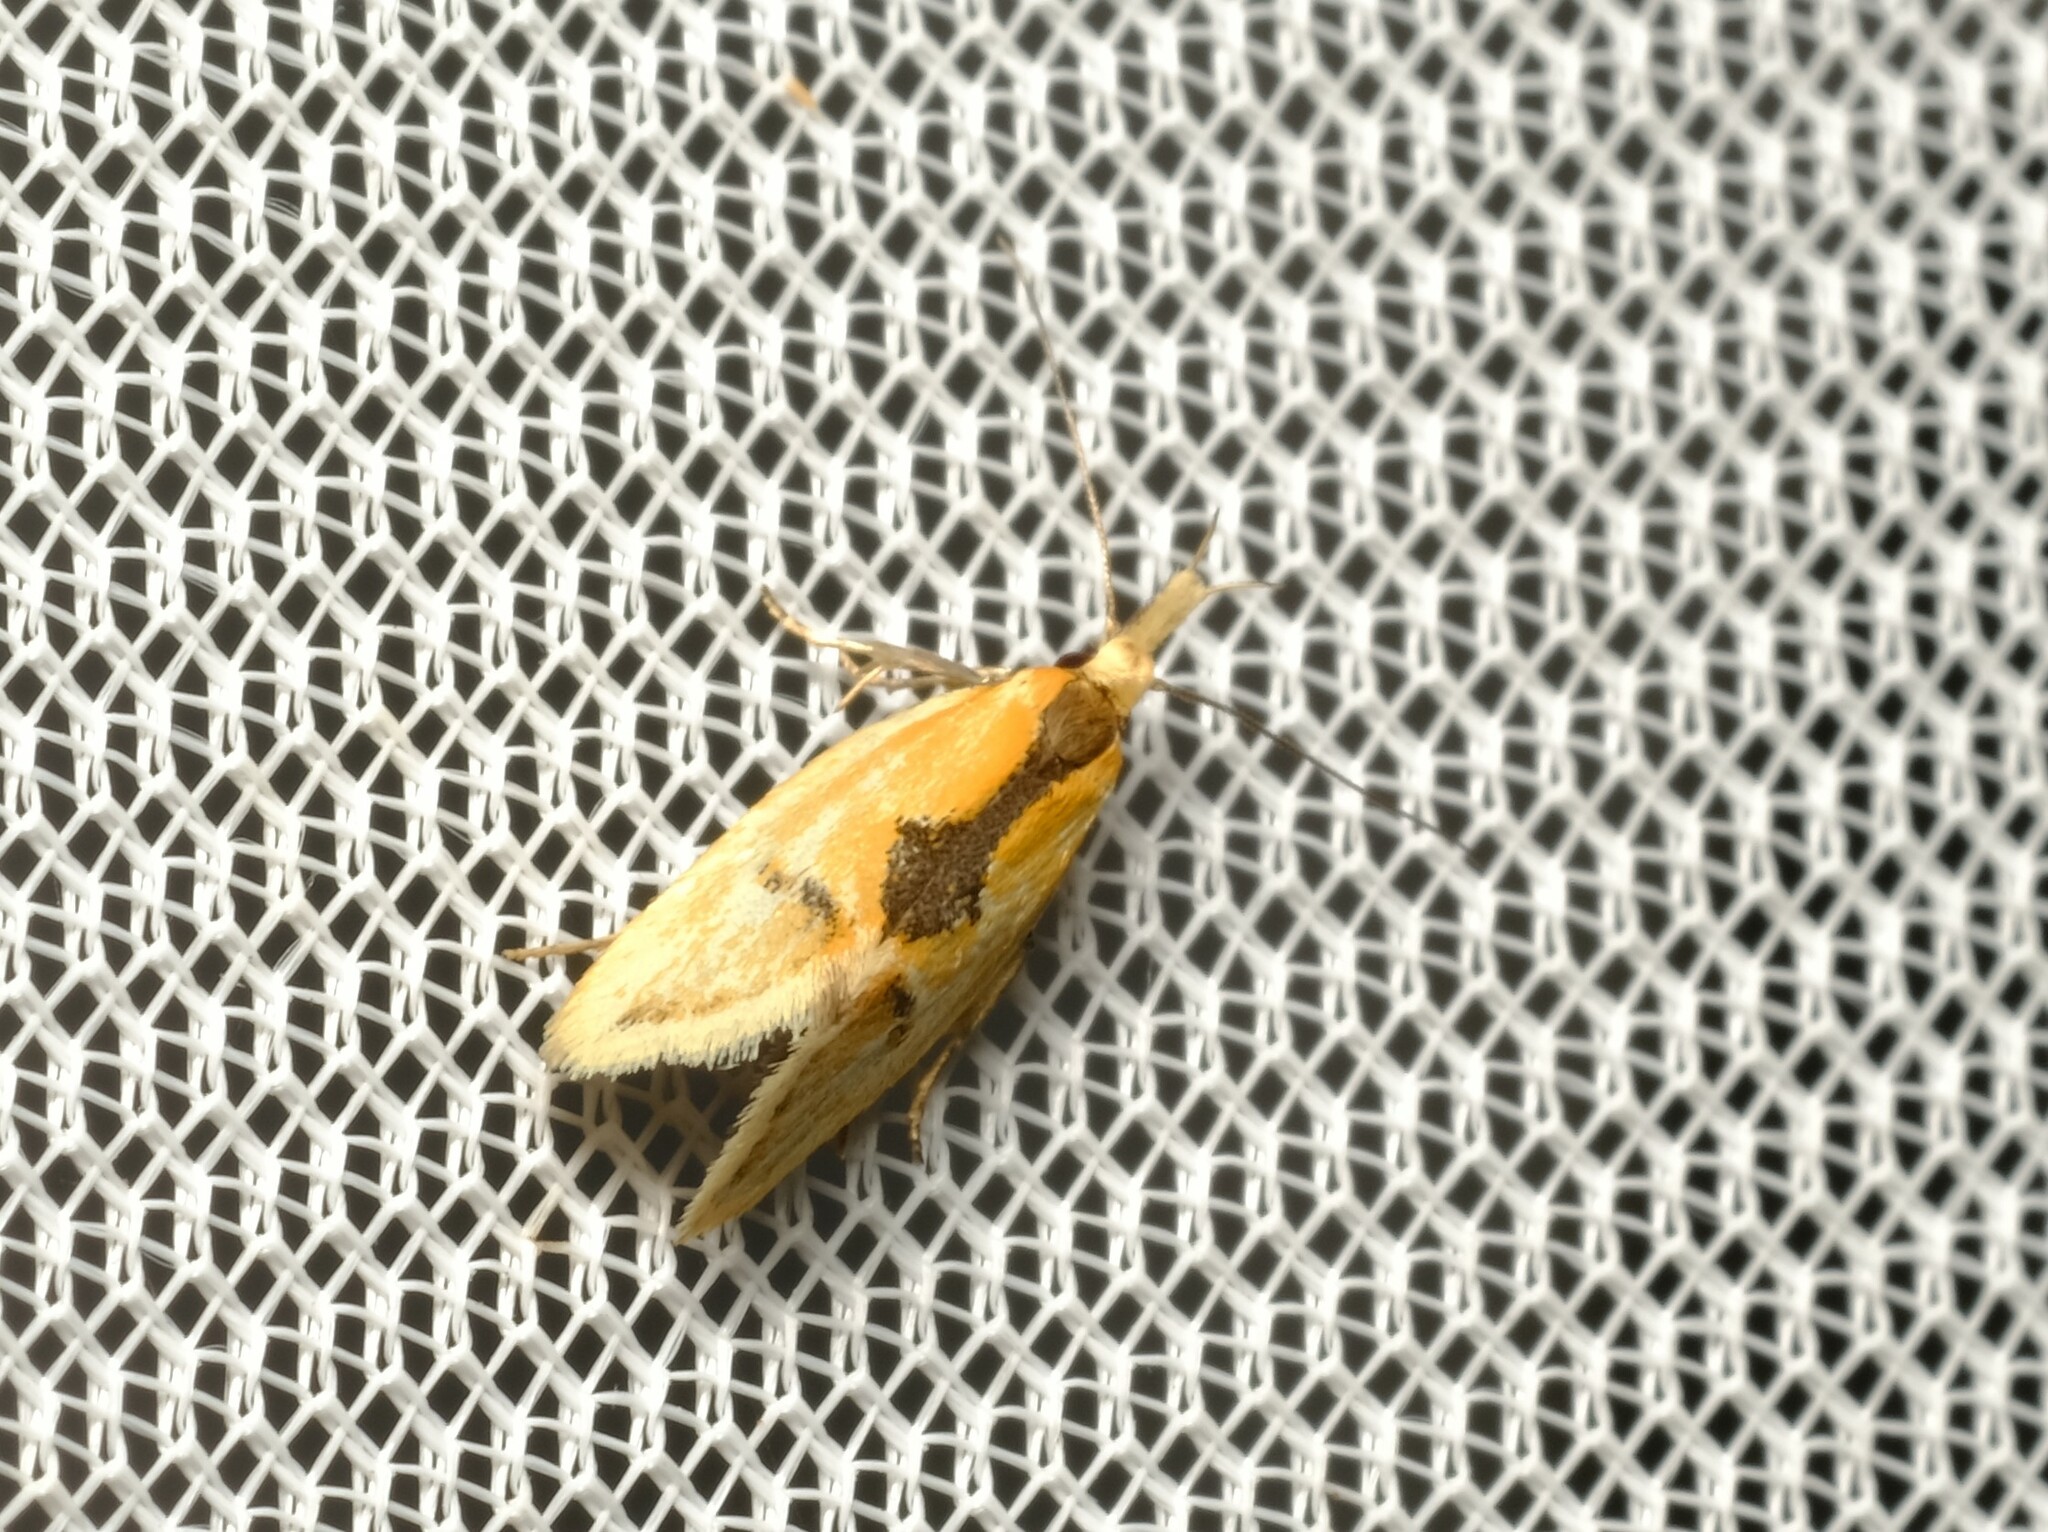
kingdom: Animalia
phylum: Arthropoda
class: Insecta
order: Lepidoptera
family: Oecophoridae
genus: Thema
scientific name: Thema chlorochyta
